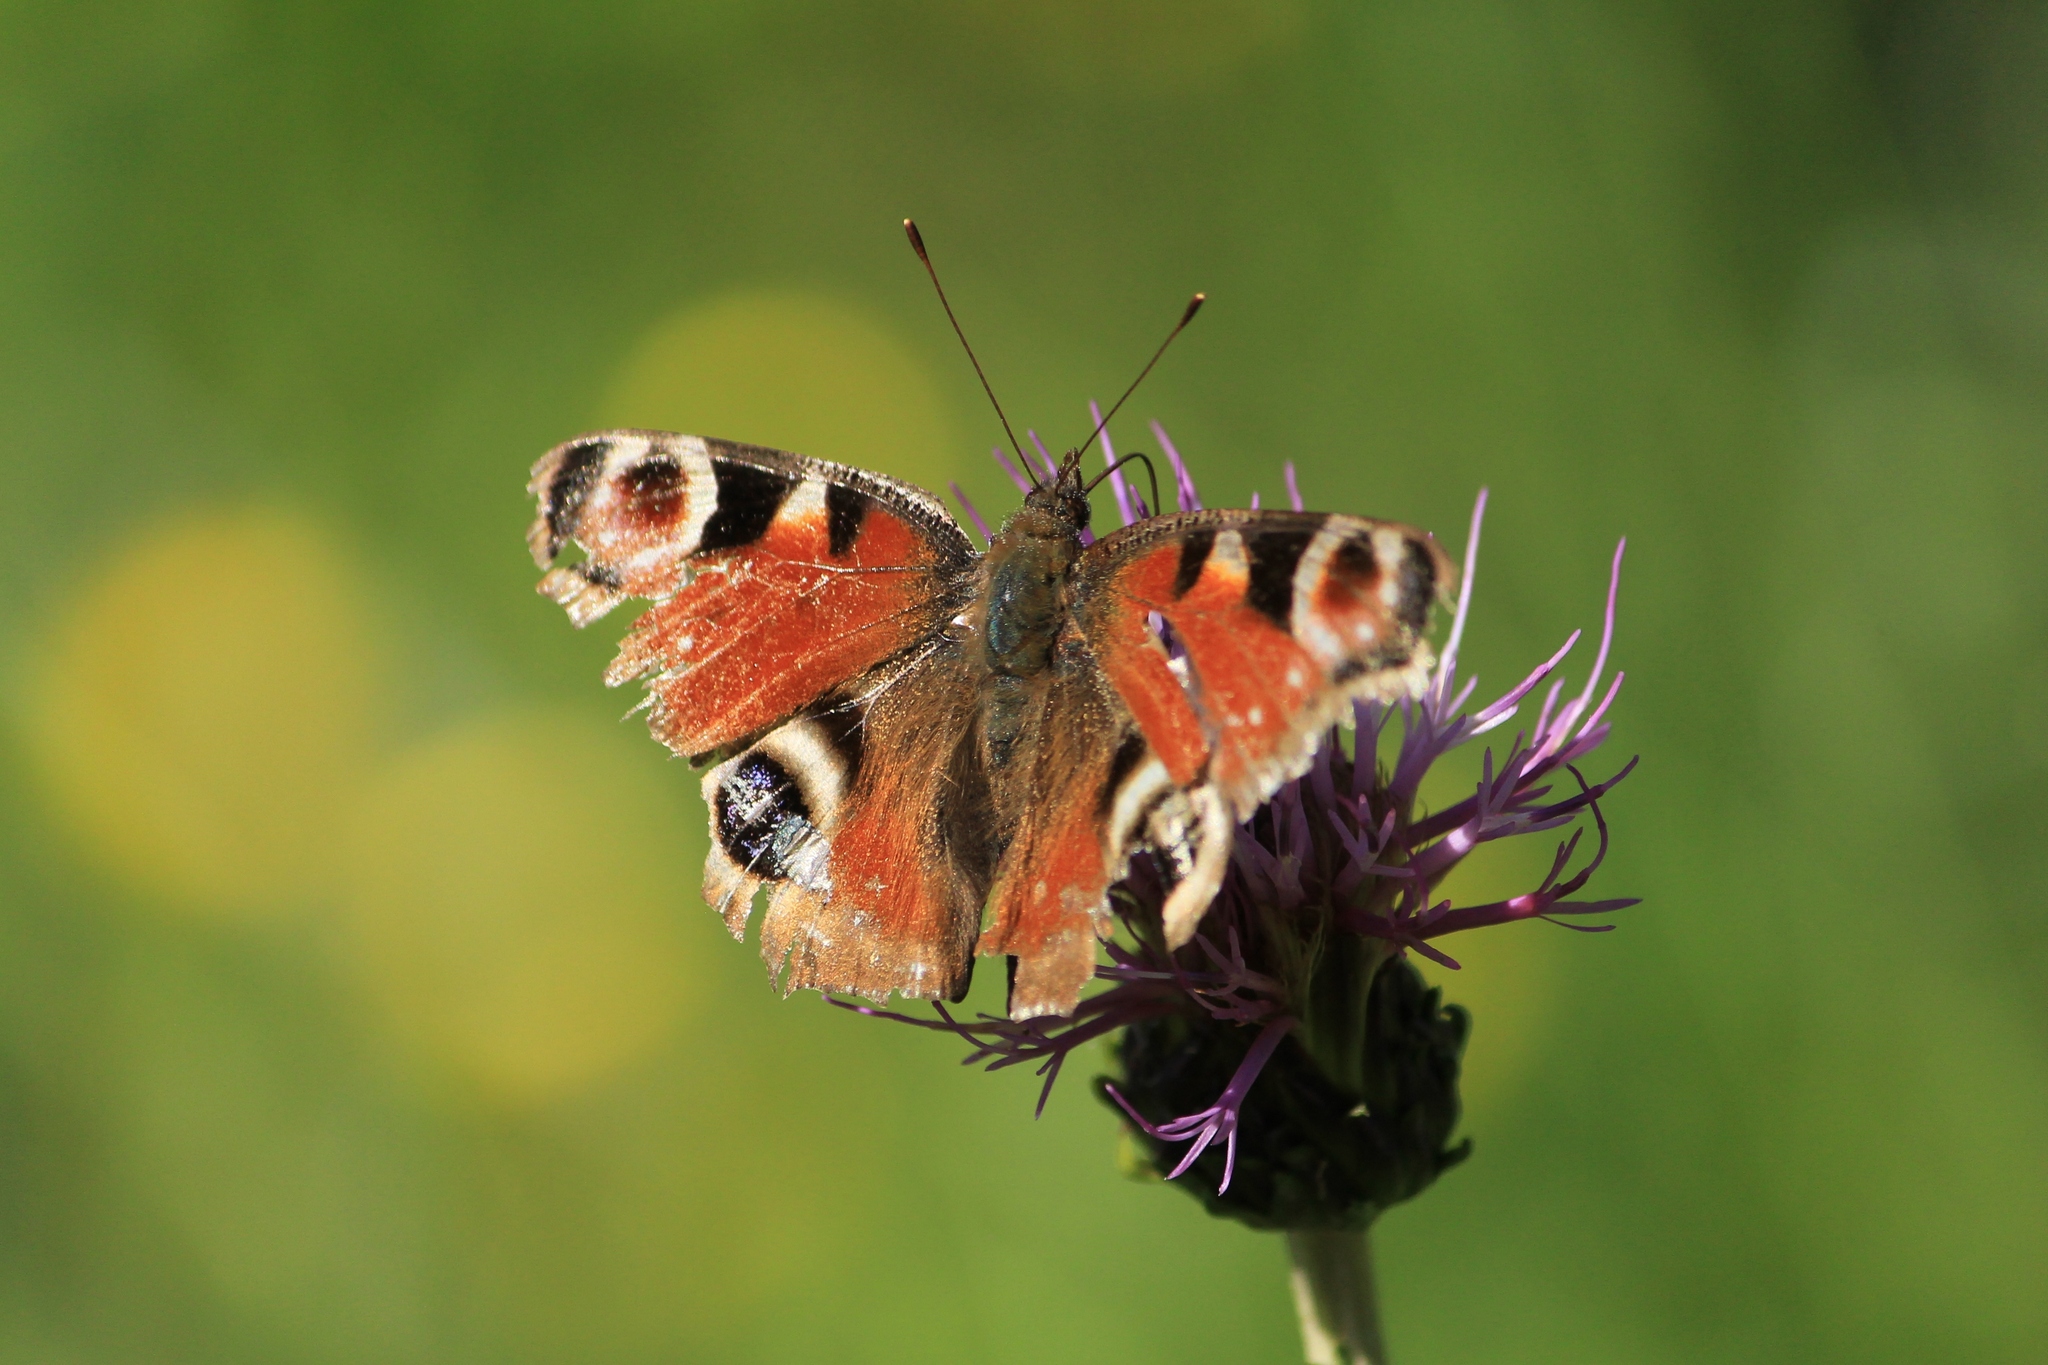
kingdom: Animalia
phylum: Arthropoda
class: Insecta
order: Lepidoptera
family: Nymphalidae
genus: Aglais
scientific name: Aglais io
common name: Peacock
